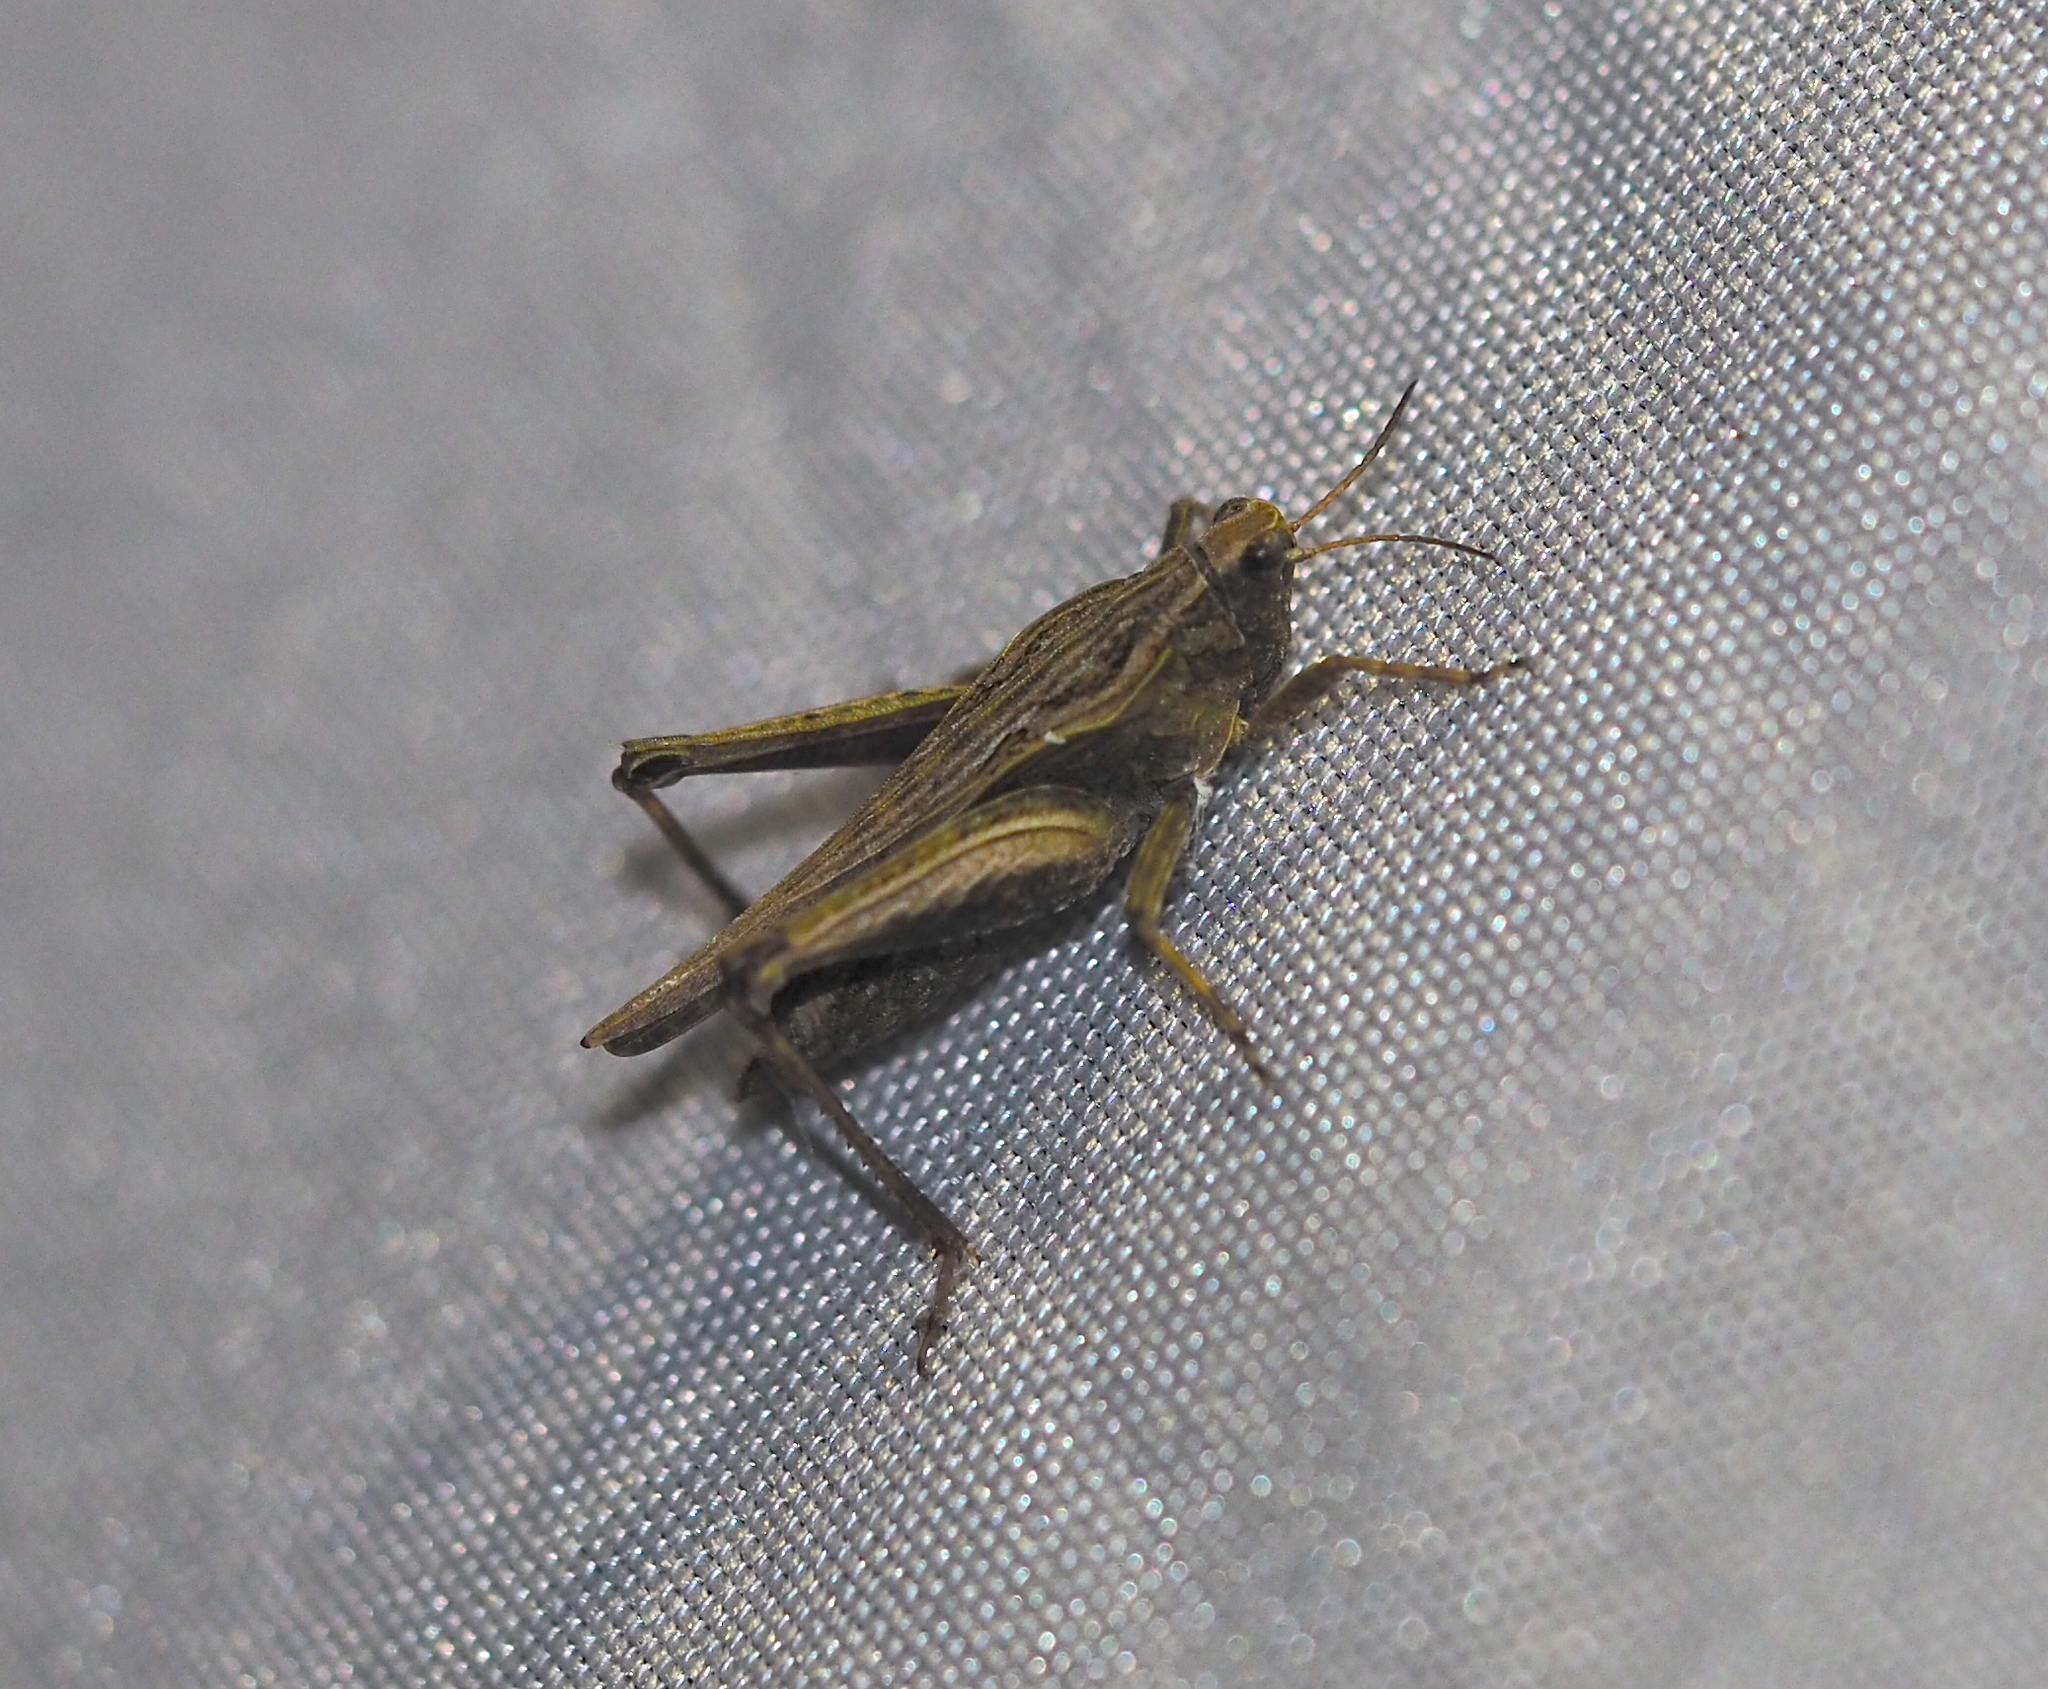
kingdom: Animalia
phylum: Arthropoda
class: Insecta
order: Orthoptera
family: Tetrigidae
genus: Tetrix
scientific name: Tetrix subulata
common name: Slender ground-hopper
